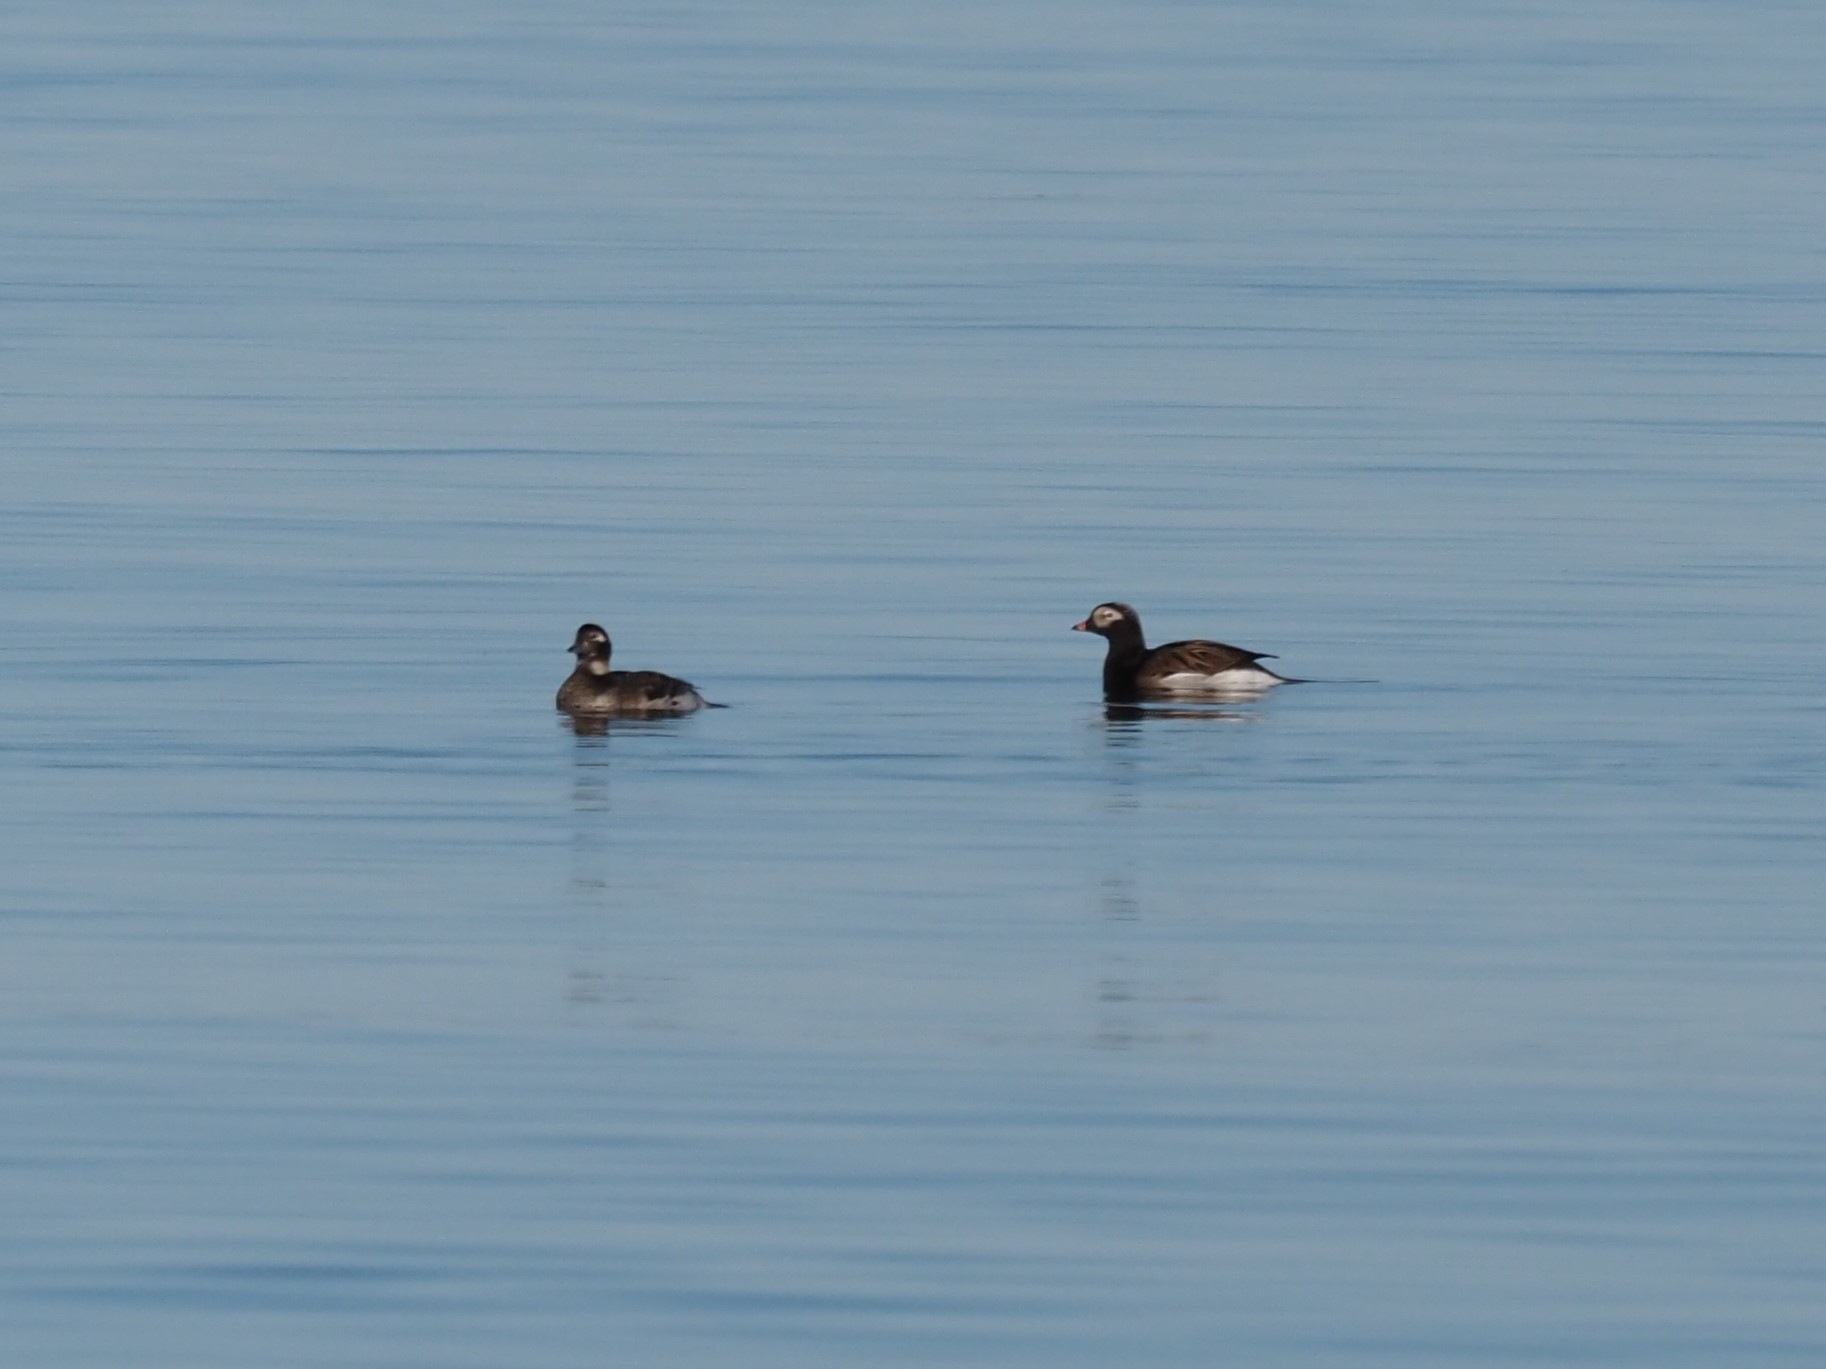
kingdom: Animalia
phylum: Chordata
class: Aves
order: Anseriformes
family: Anatidae
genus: Clangula
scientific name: Clangula hyemalis
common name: Long-tailed duck
